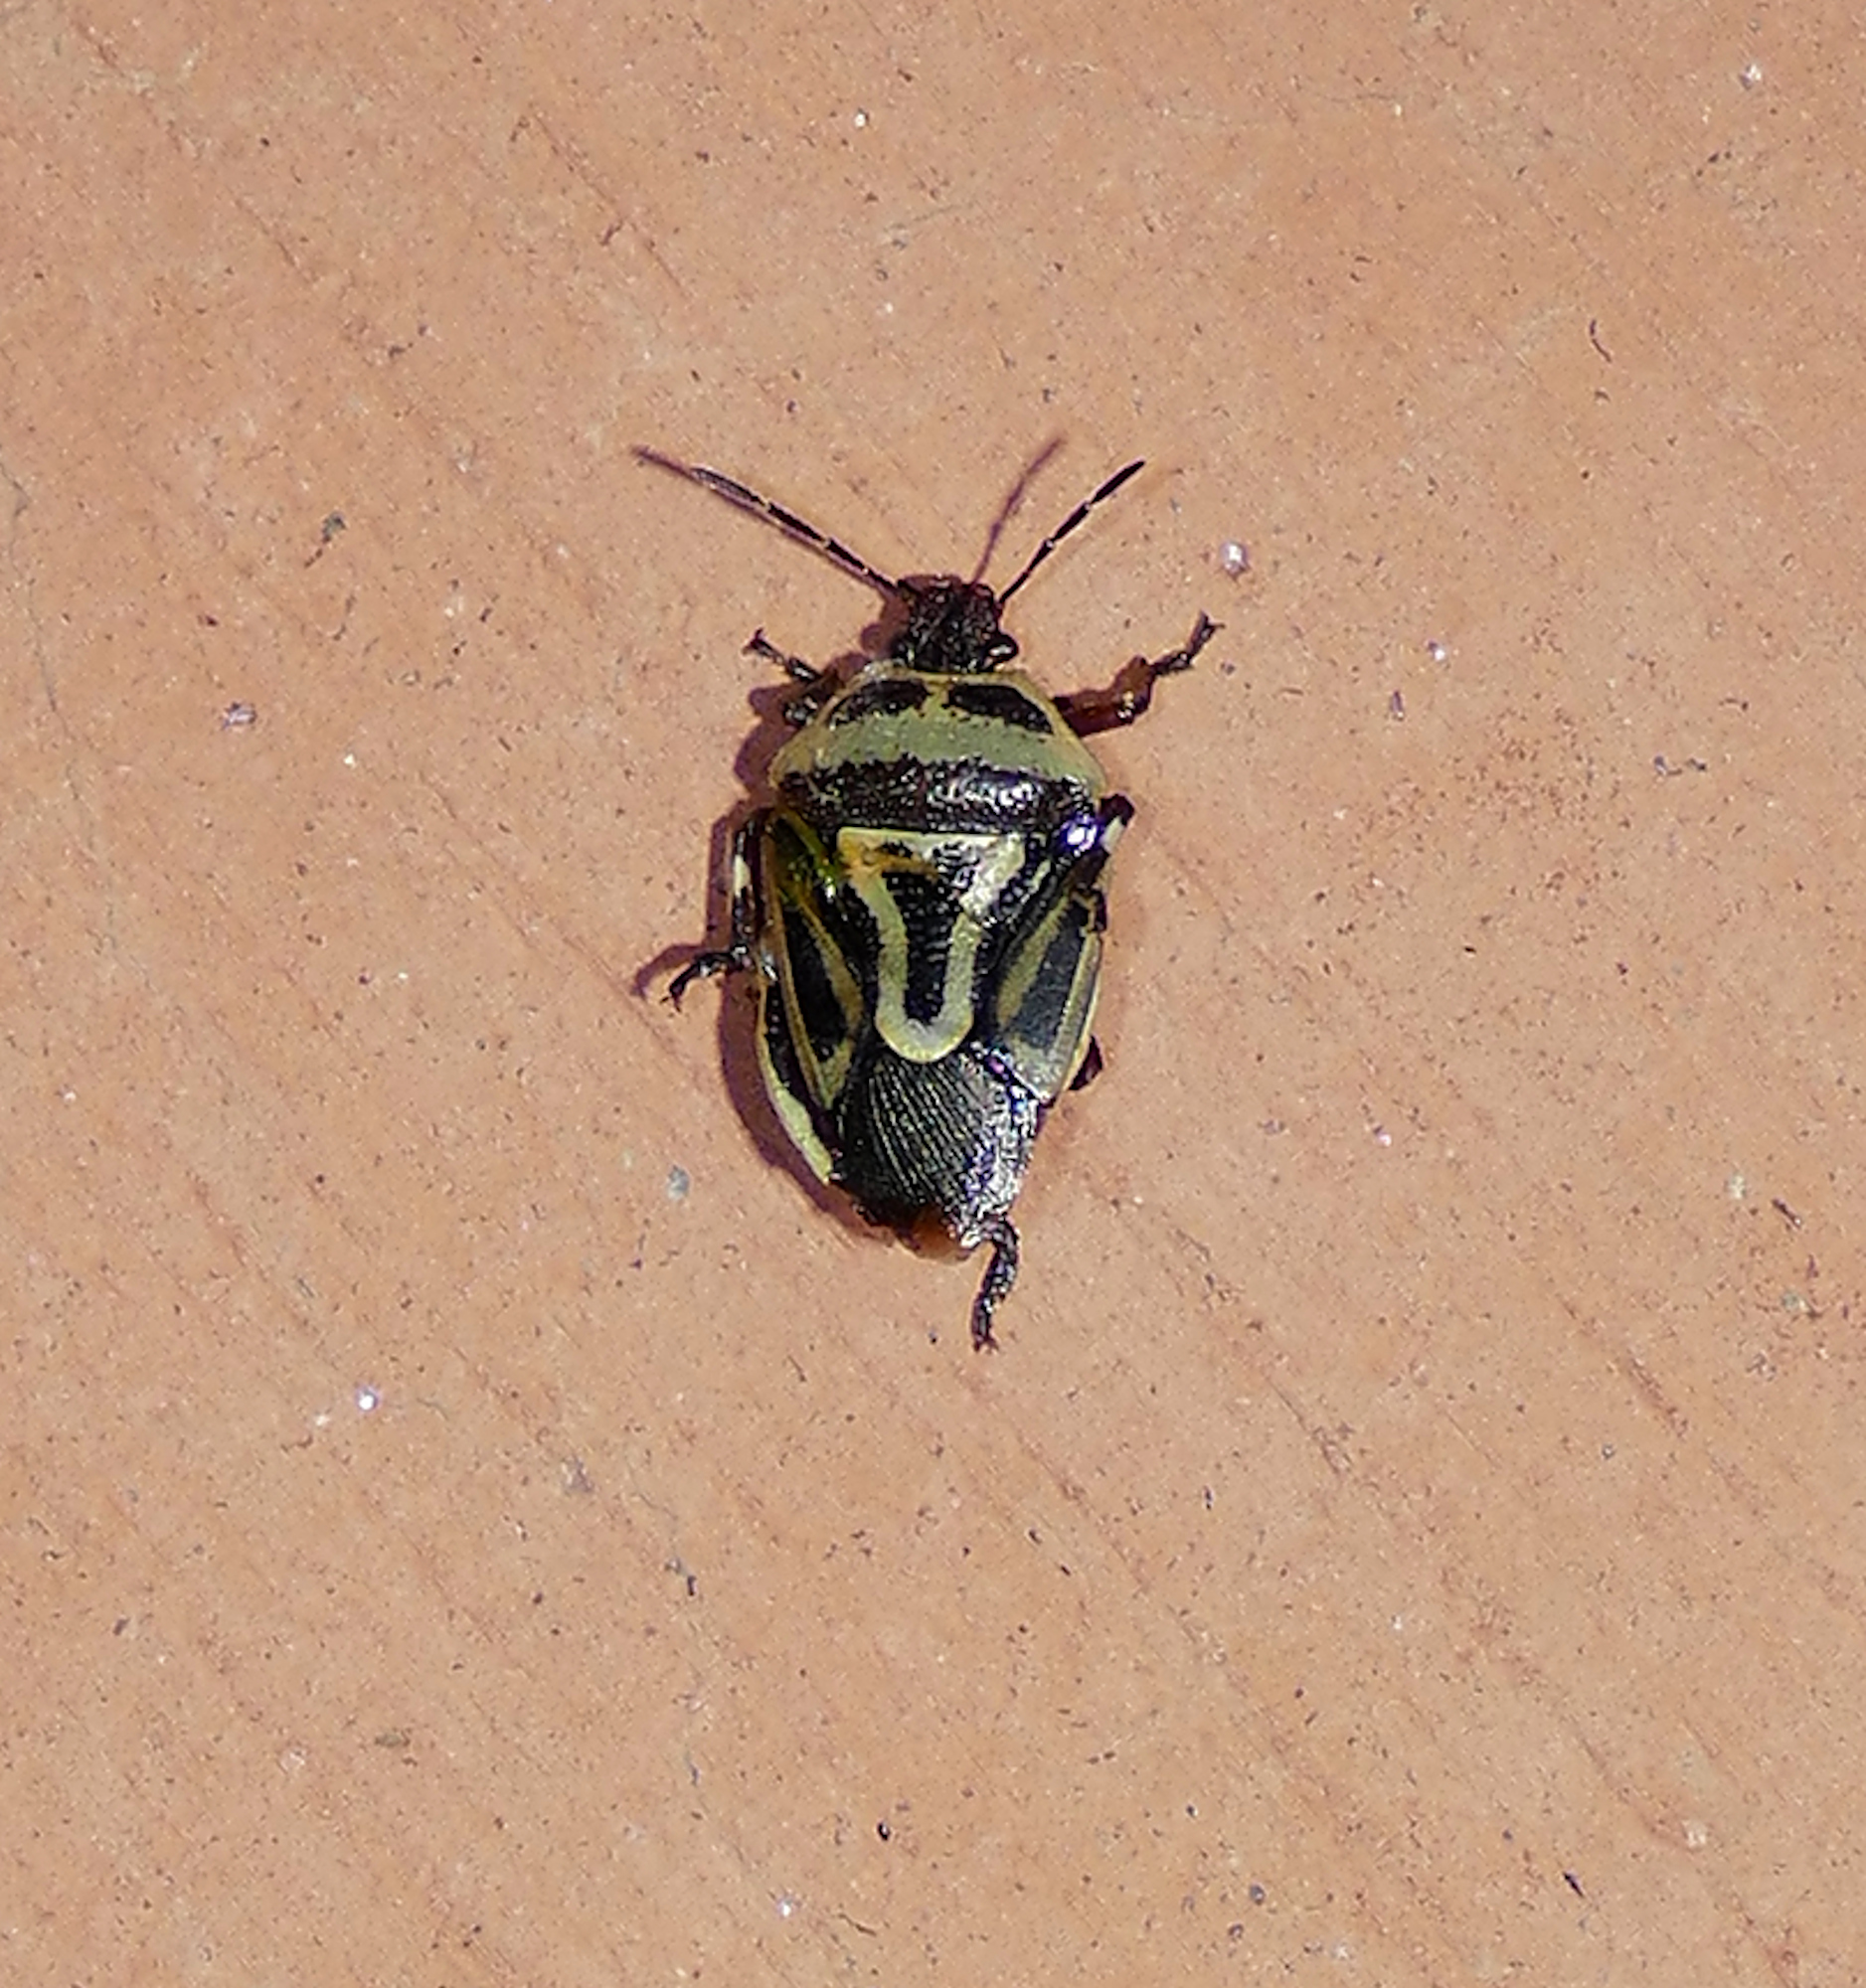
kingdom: Animalia
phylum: Arthropoda
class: Insecta
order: Hemiptera
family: Pentatomidae
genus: Perillus
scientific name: Perillus bioculatus
